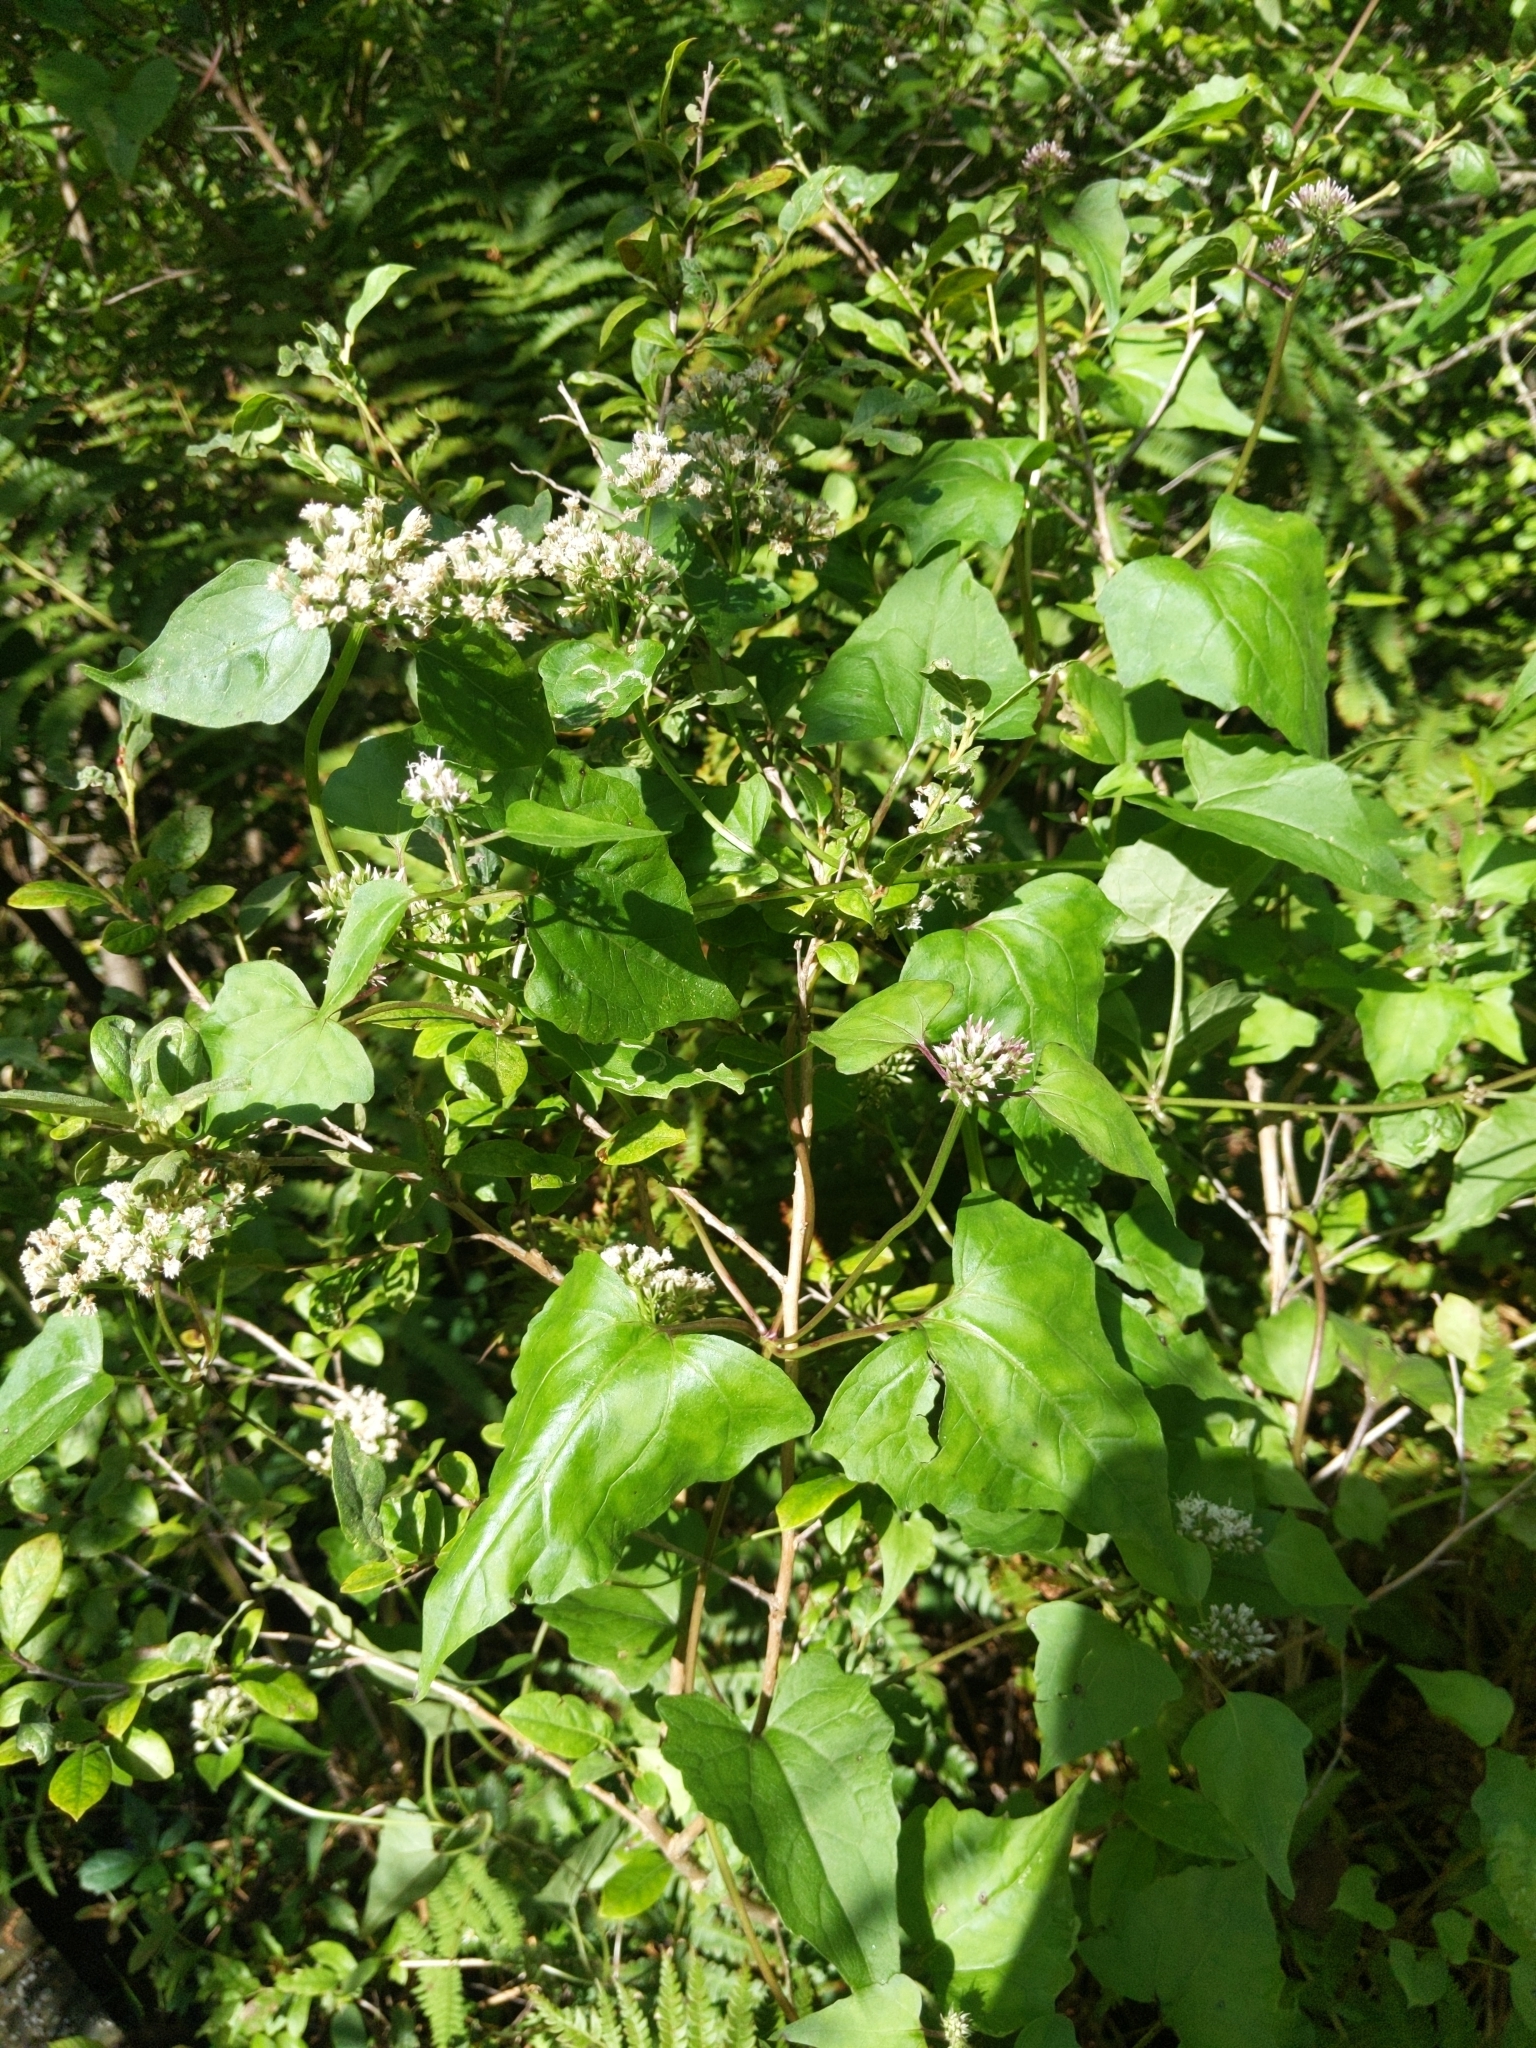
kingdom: Plantae
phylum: Tracheophyta
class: Magnoliopsida
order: Asterales
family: Asteraceae
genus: Mikania
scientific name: Mikania scandens
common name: Climbing hempvine
